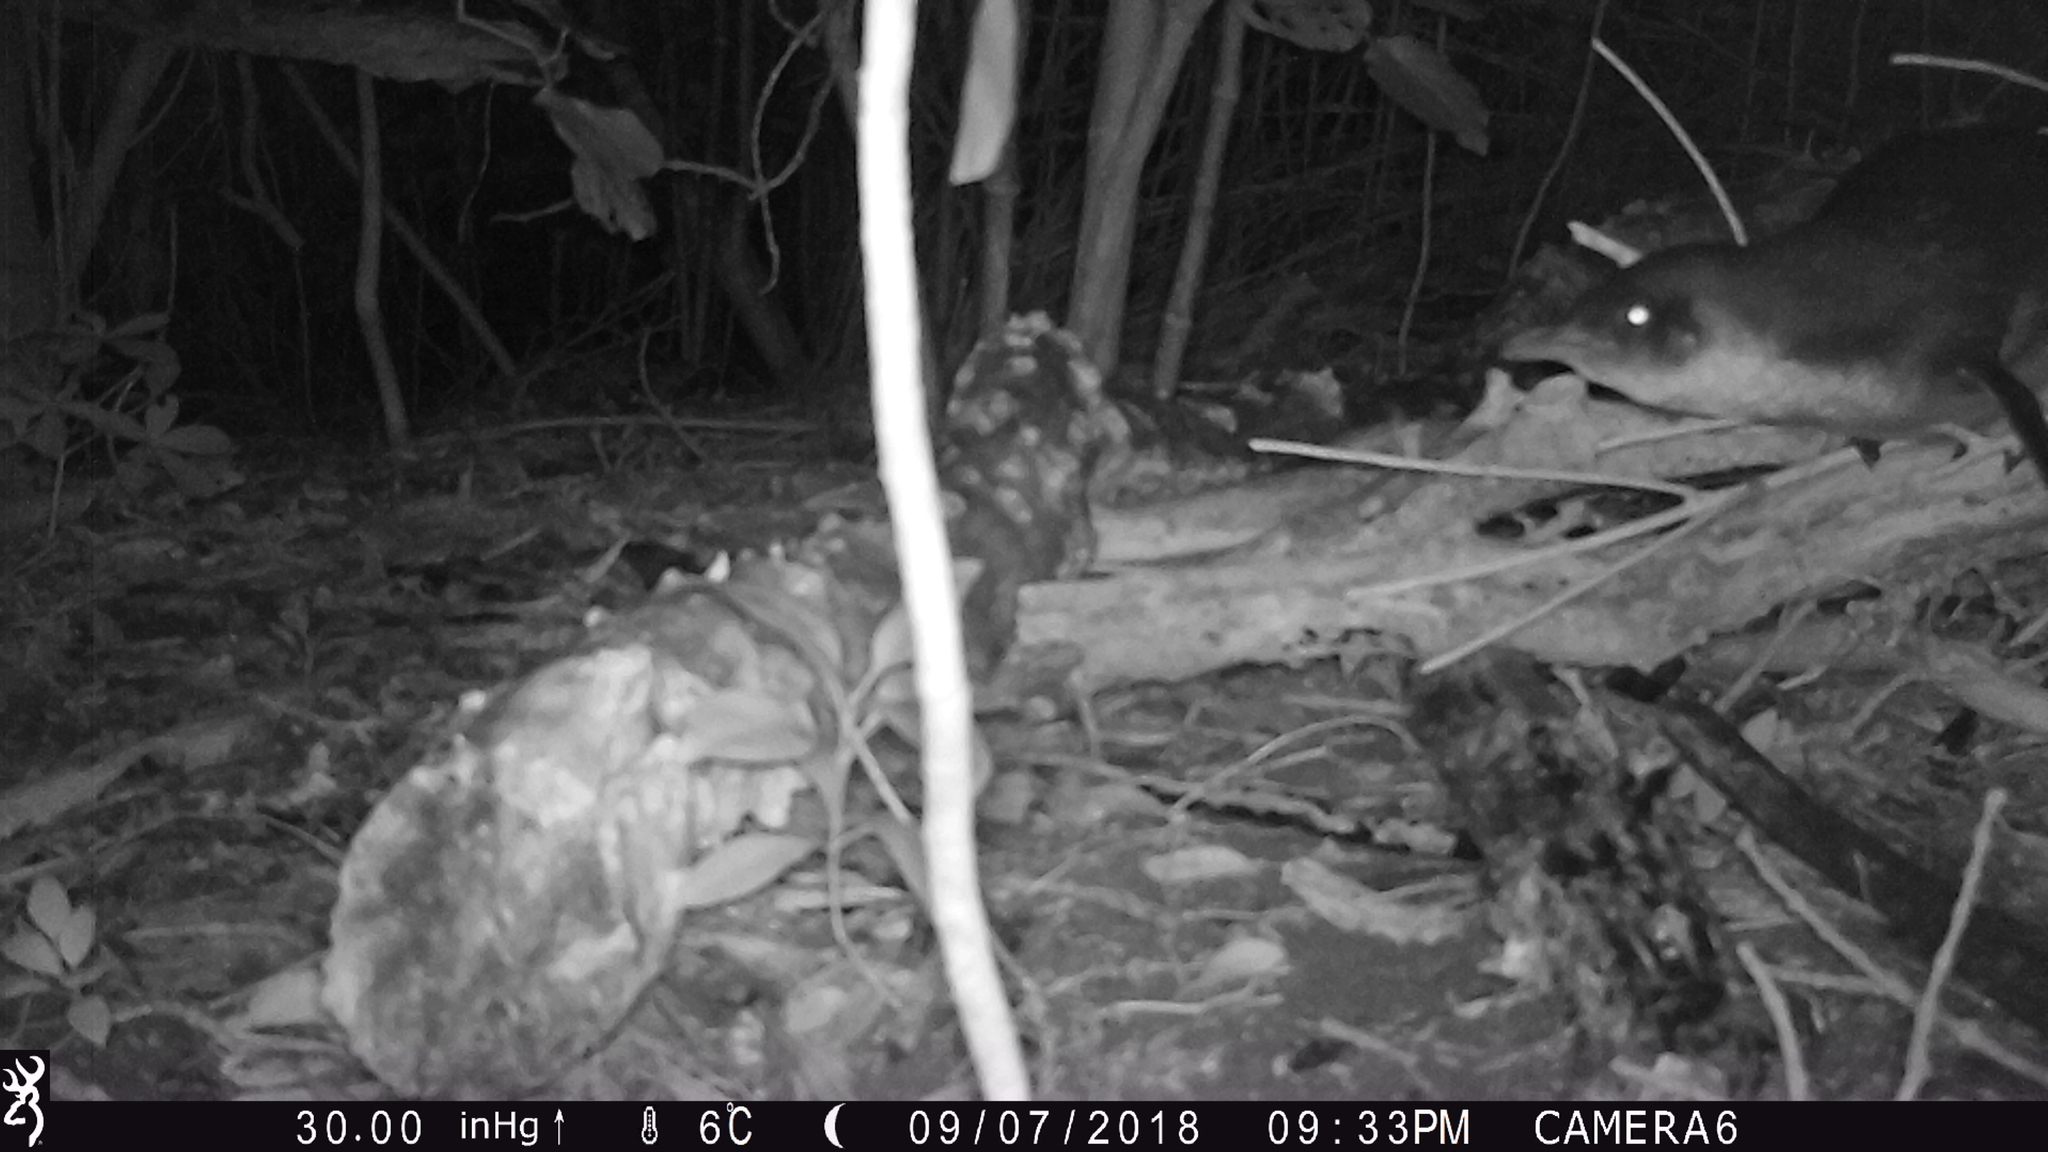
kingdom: Animalia
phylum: Chordata
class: Aves
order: Sphenisciformes
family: Spheniscidae
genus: Eudyptula
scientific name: Eudyptula minor
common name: Little penguin
